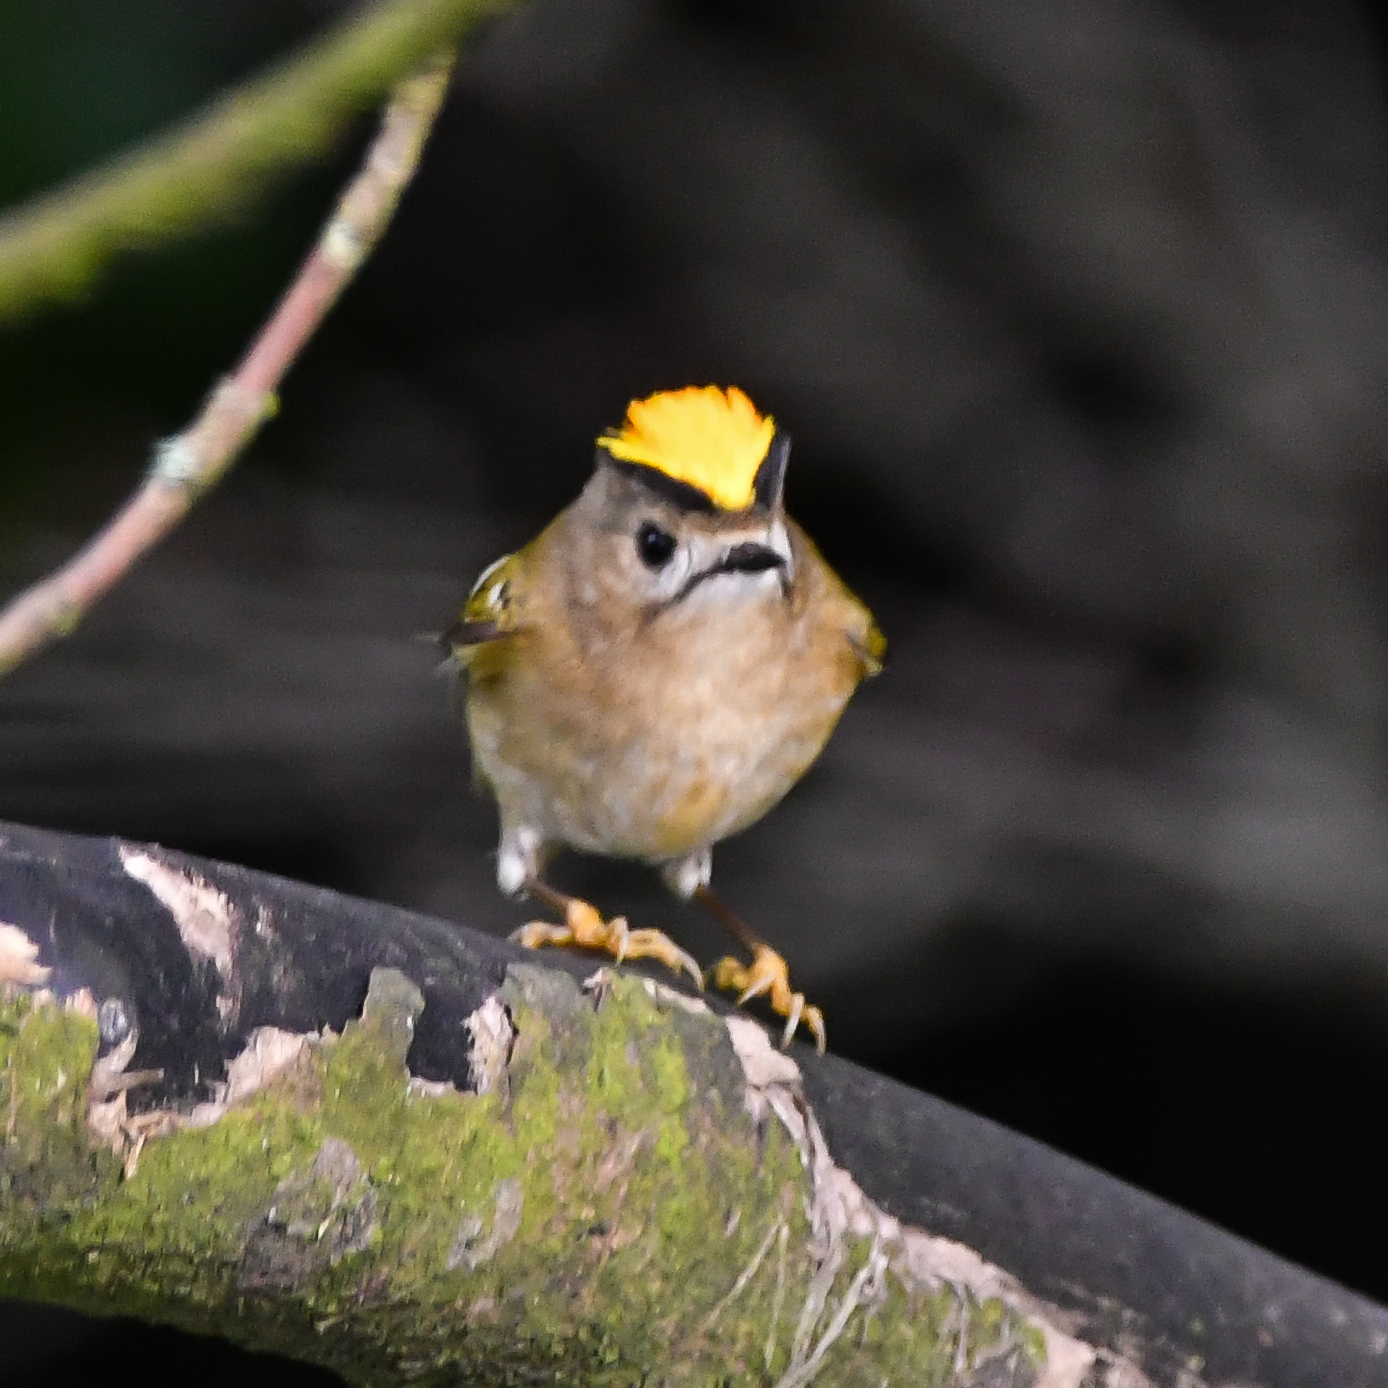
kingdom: Animalia
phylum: Chordata
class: Aves
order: Passeriformes
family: Regulidae
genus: Regulus
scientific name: Regulus regulus
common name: Goldcrest
